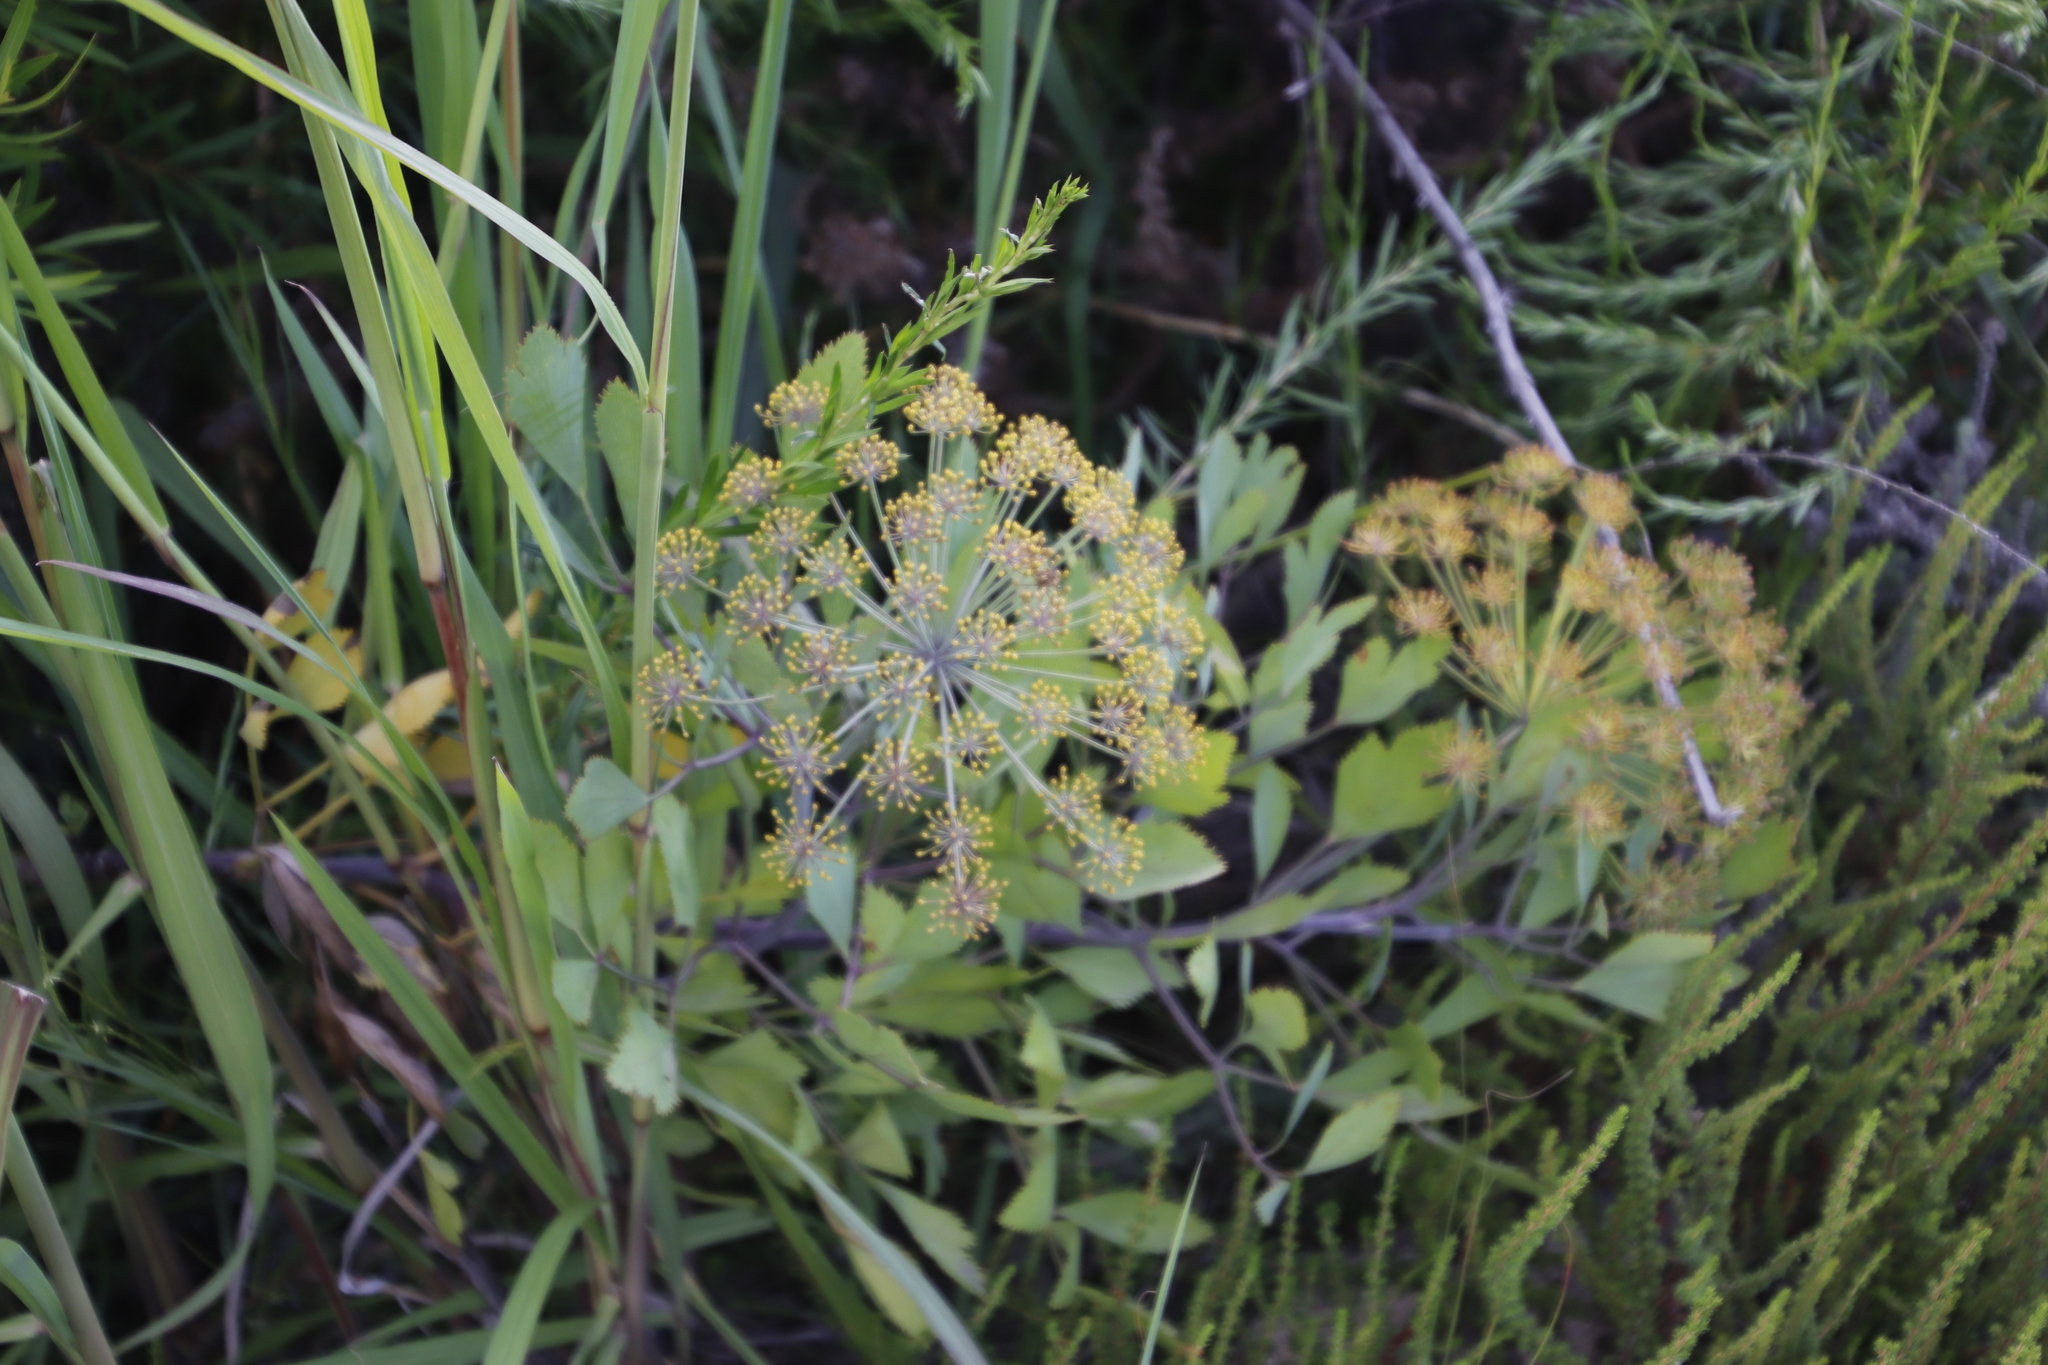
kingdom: Plantae
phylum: Tracheophyta
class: Magnoliopsida
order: Apiales
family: Apiaceae
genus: Notobubon
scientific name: Notobubon galbanum
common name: Blisterbush
